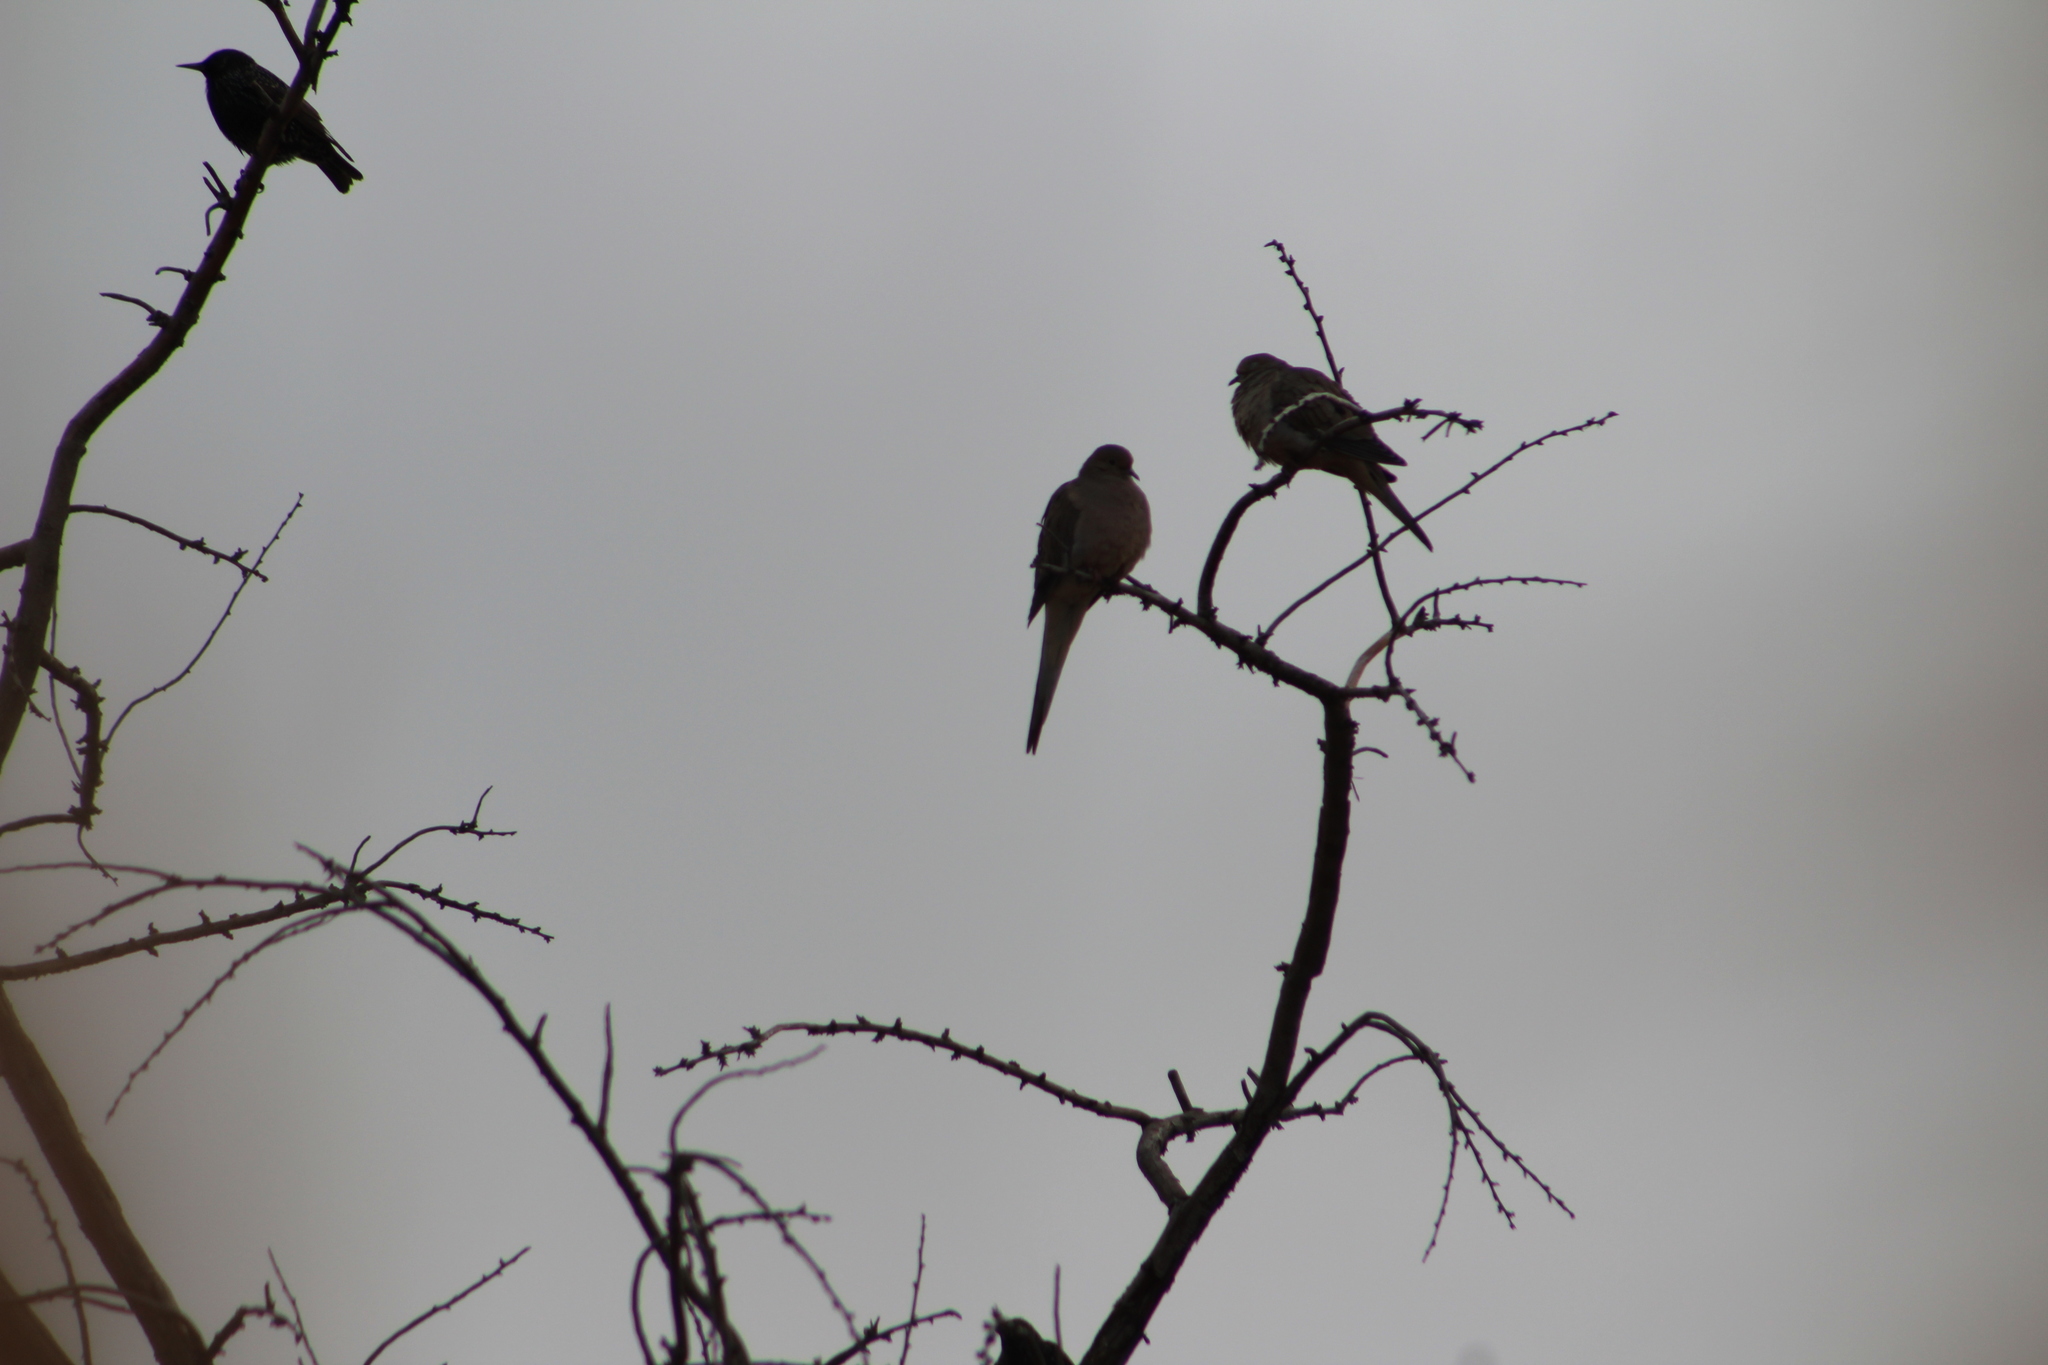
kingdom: Animalia
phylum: Chordata
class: Aves
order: Columbiformes
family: Columbidae
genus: Zenaida
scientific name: Zenaida macroura
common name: Mourning dove
